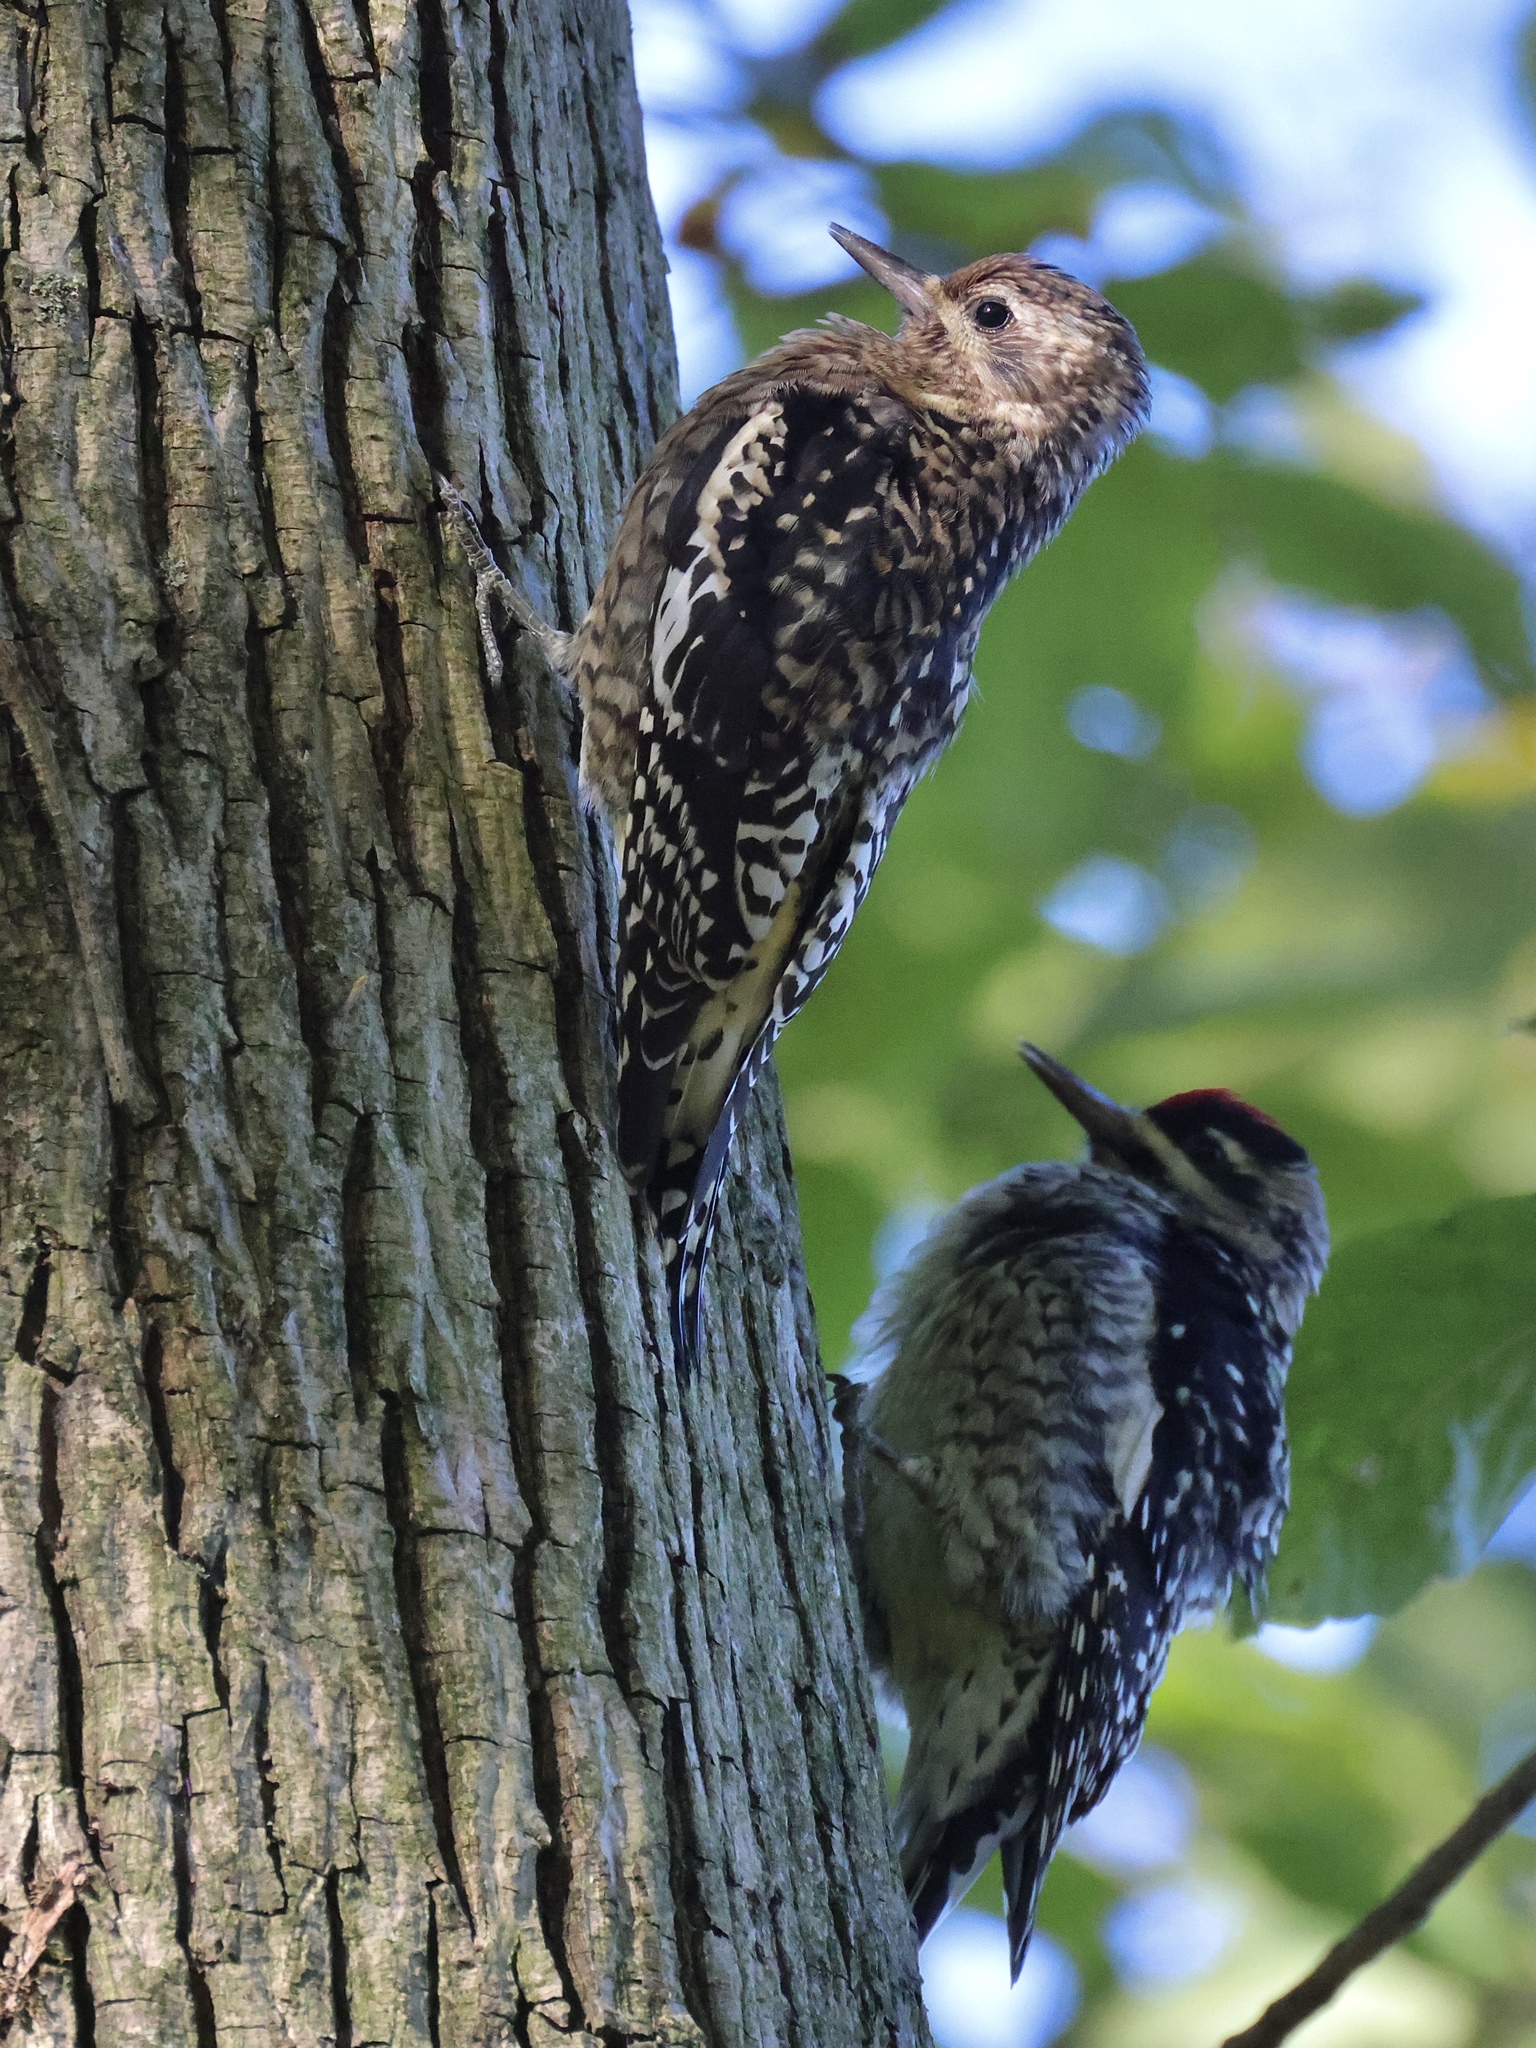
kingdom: Animalia
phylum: Chordata
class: Aves
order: Piciformes
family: Picidae
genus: Sphyrapicus
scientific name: Sphyrapicus varius
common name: Yellow-bellied sapsucker
